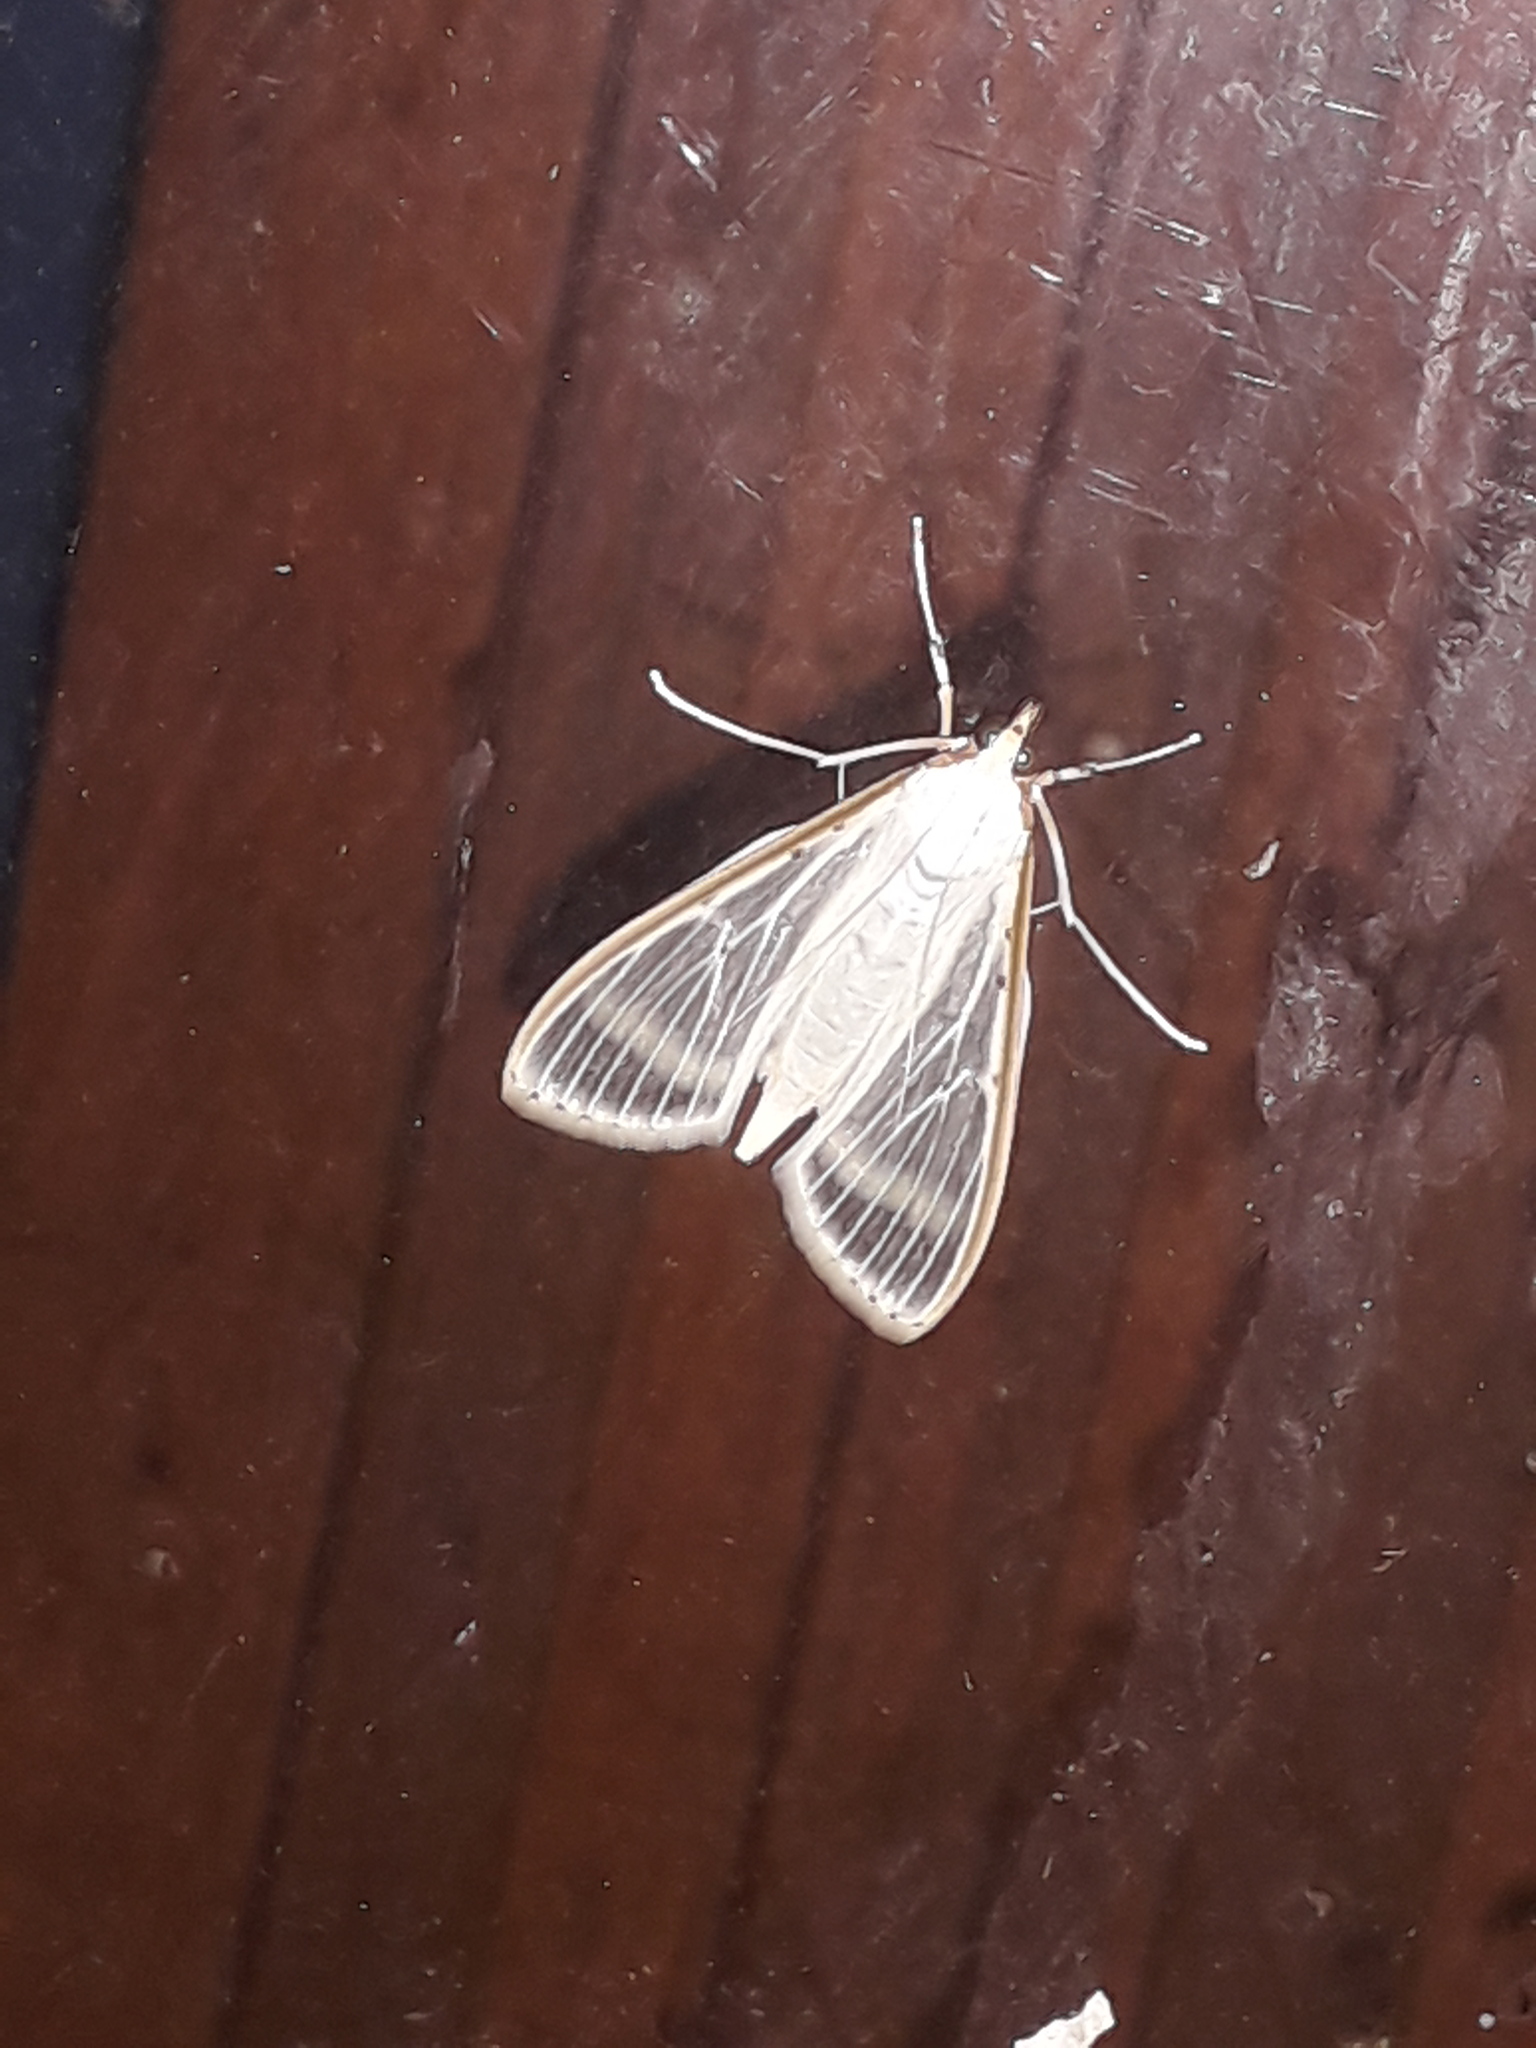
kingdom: Animalia
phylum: Arthropoda
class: Insecta
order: Lepidoptera
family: Crambidae
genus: Palpita
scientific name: Palpita quadristigmalis
